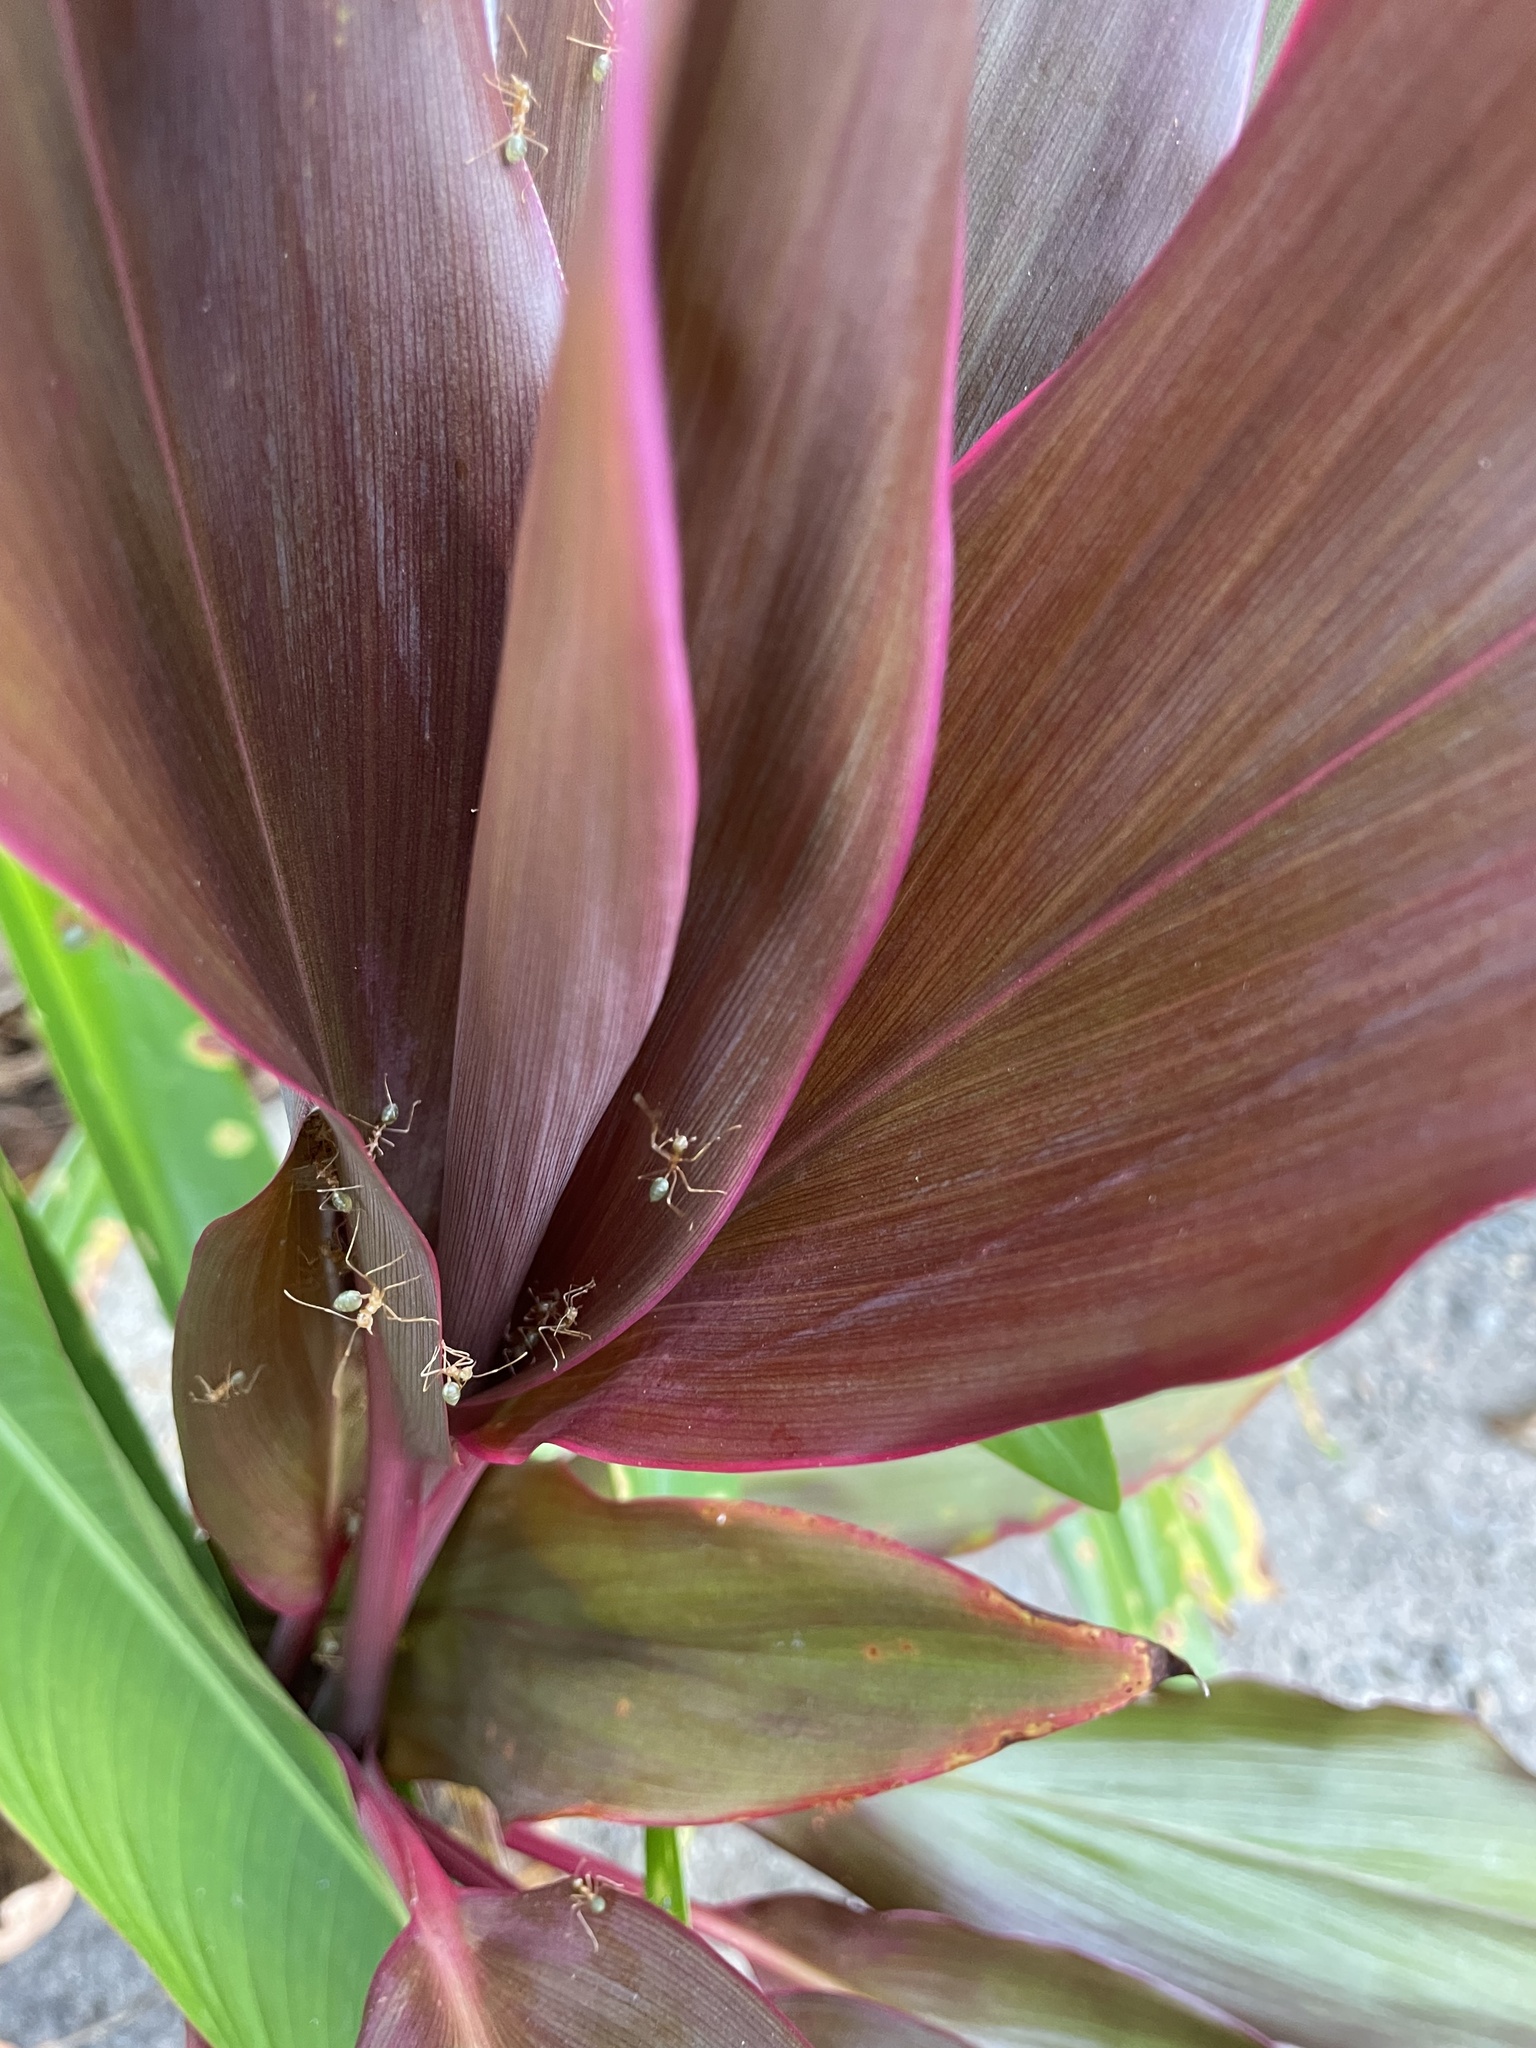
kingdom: Animalia
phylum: Arthropoda
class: Insecta
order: Hymenoptera
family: Formicidae
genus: Oecophylla
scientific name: Oecophylla smaragdina
